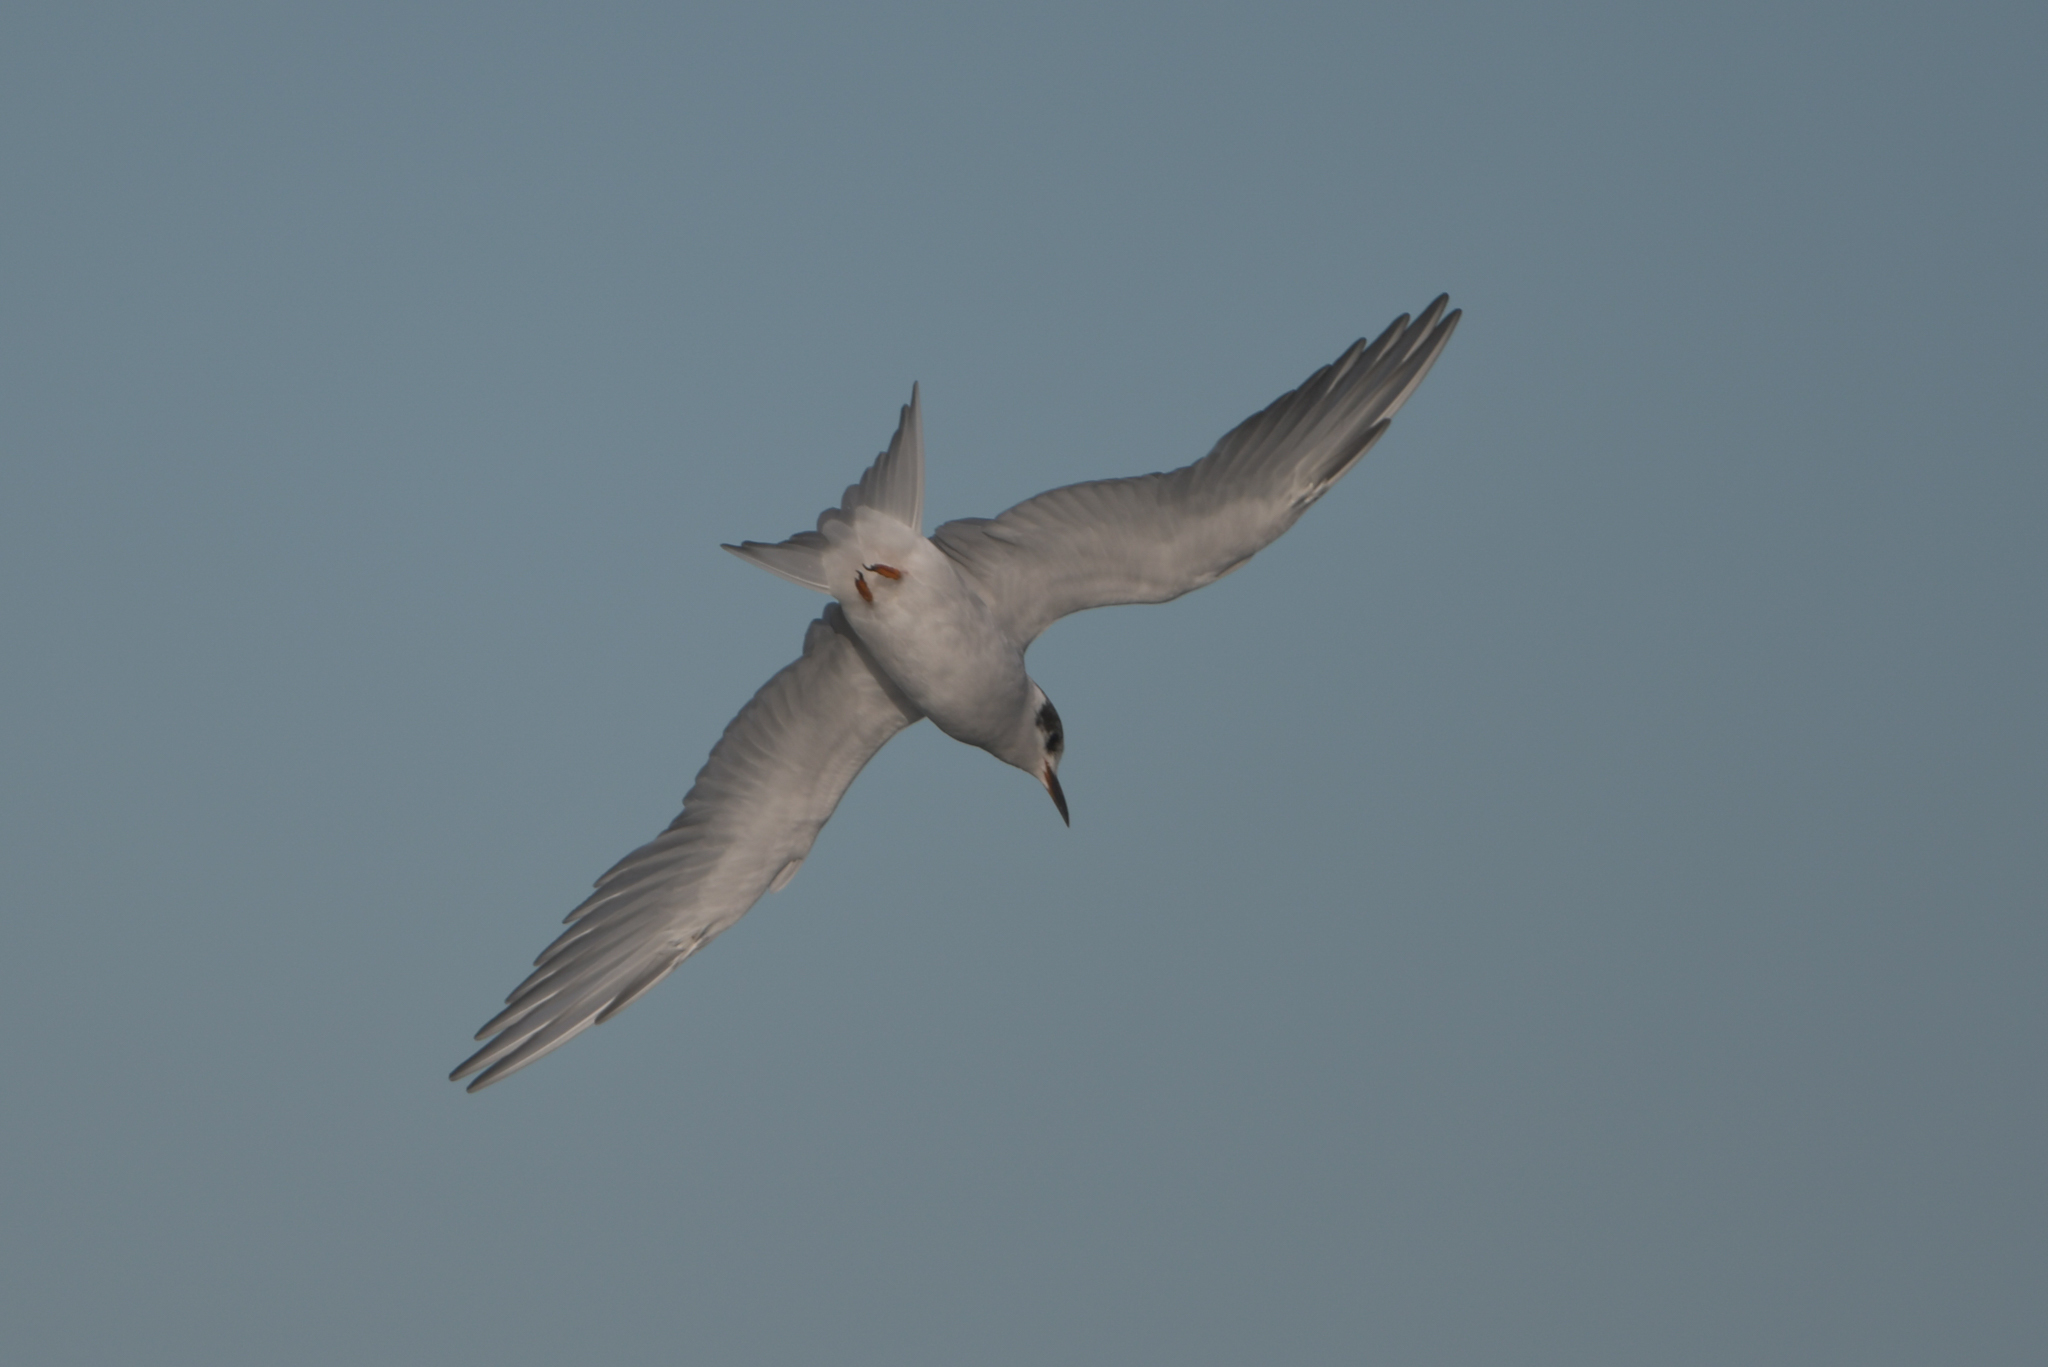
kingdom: Animalia
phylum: Chordata
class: Aves
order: Charadriiformes
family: Laridae
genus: Chlidonias
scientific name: Chlidonias albostriatus
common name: Black-fronted tern
